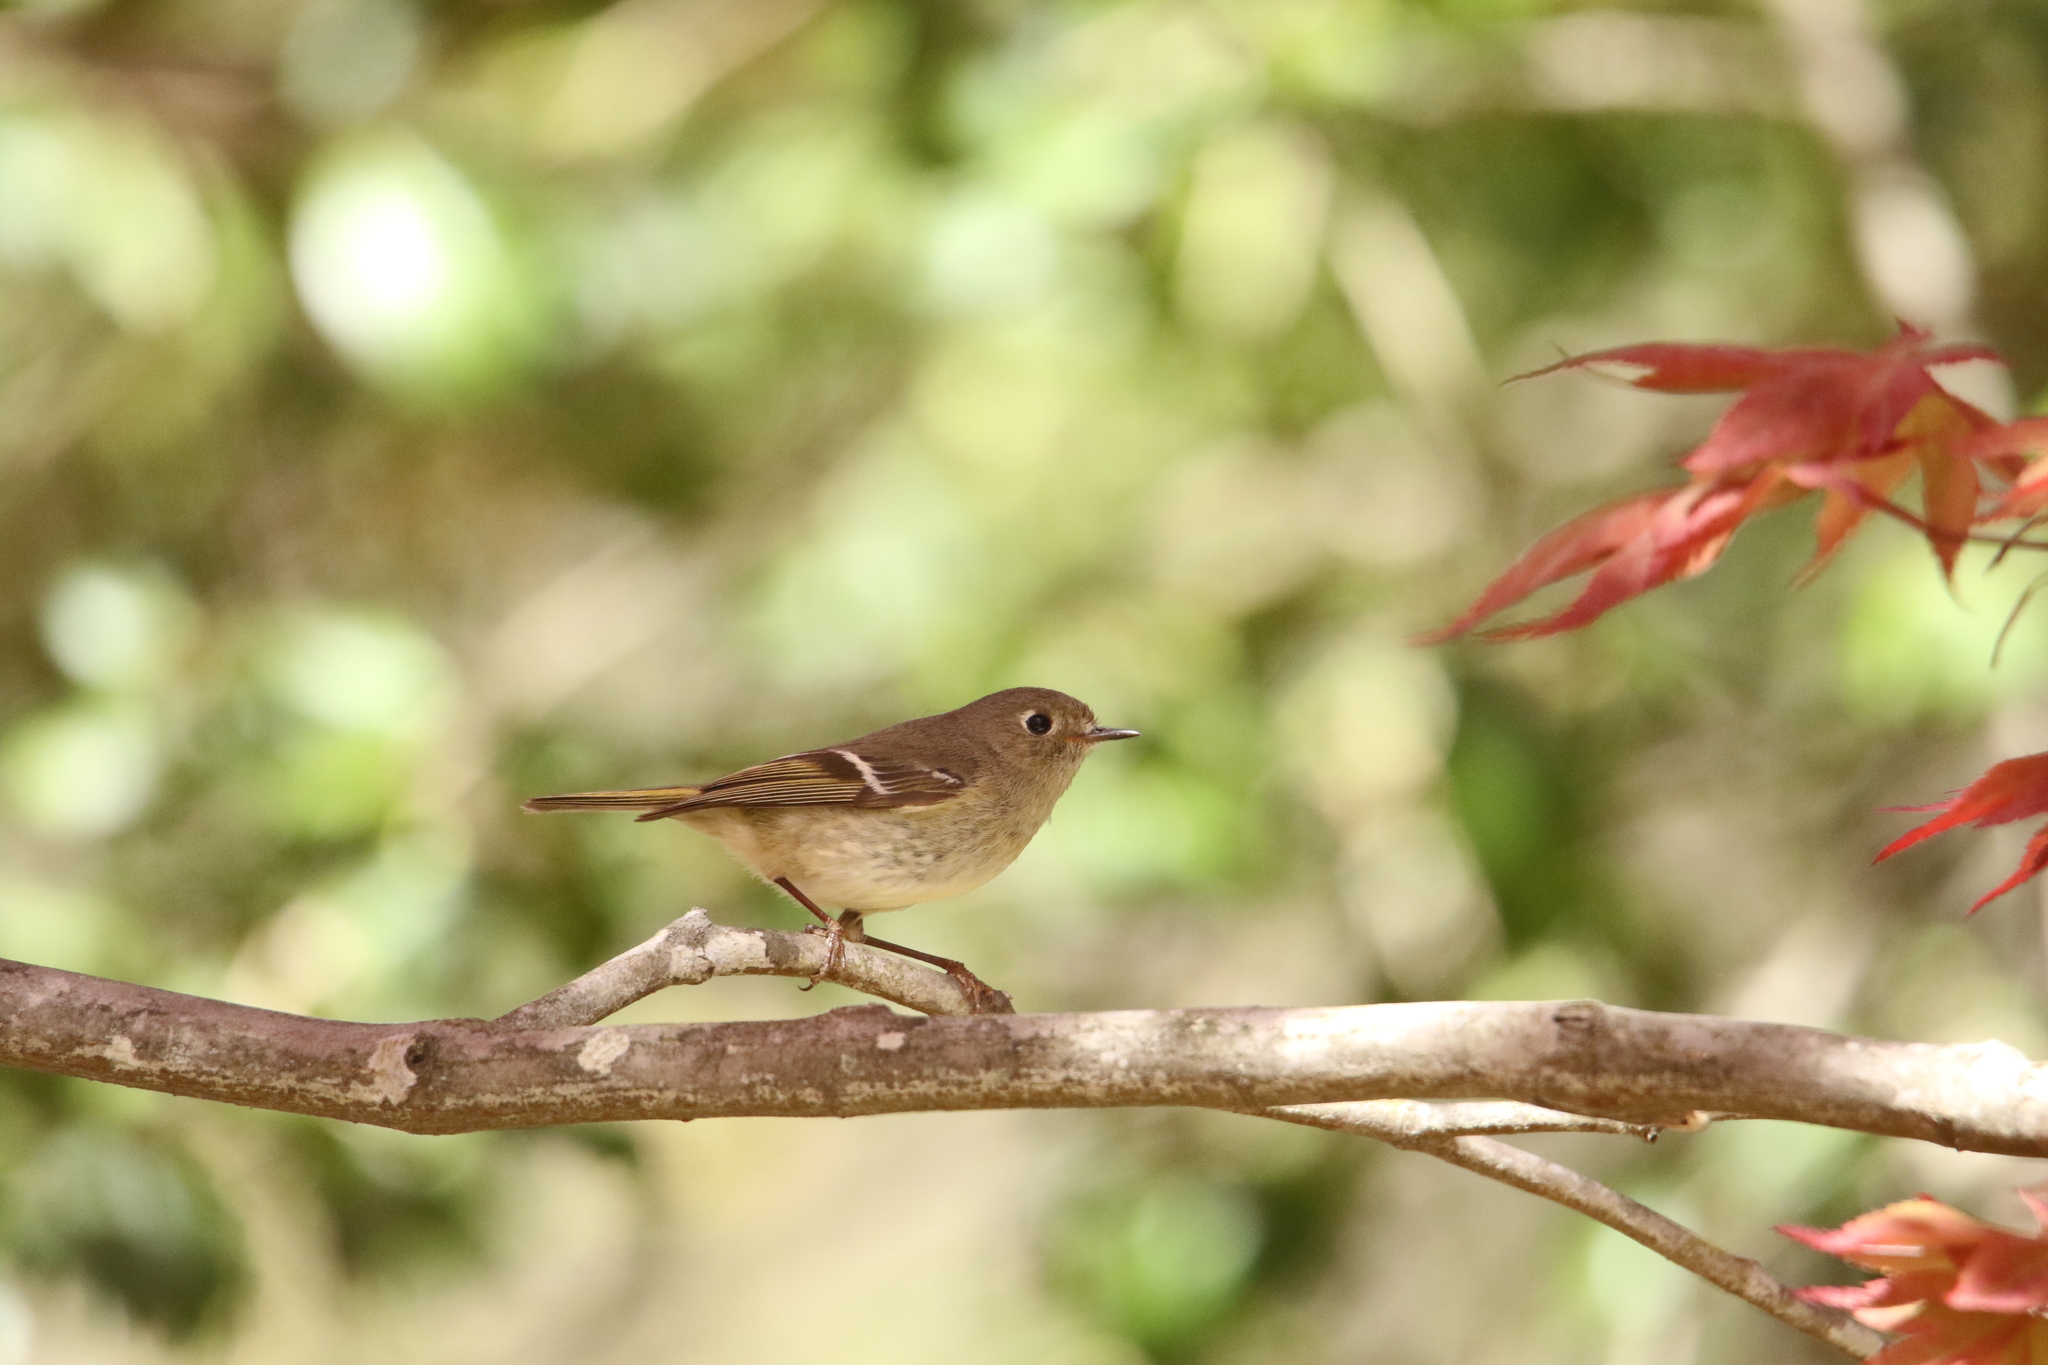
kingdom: Animalia
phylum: Chordata
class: Aves
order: Passeriformes
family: Regulidae
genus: Regulus
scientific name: Regulus calendula
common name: Ruby-crowned kinglet
